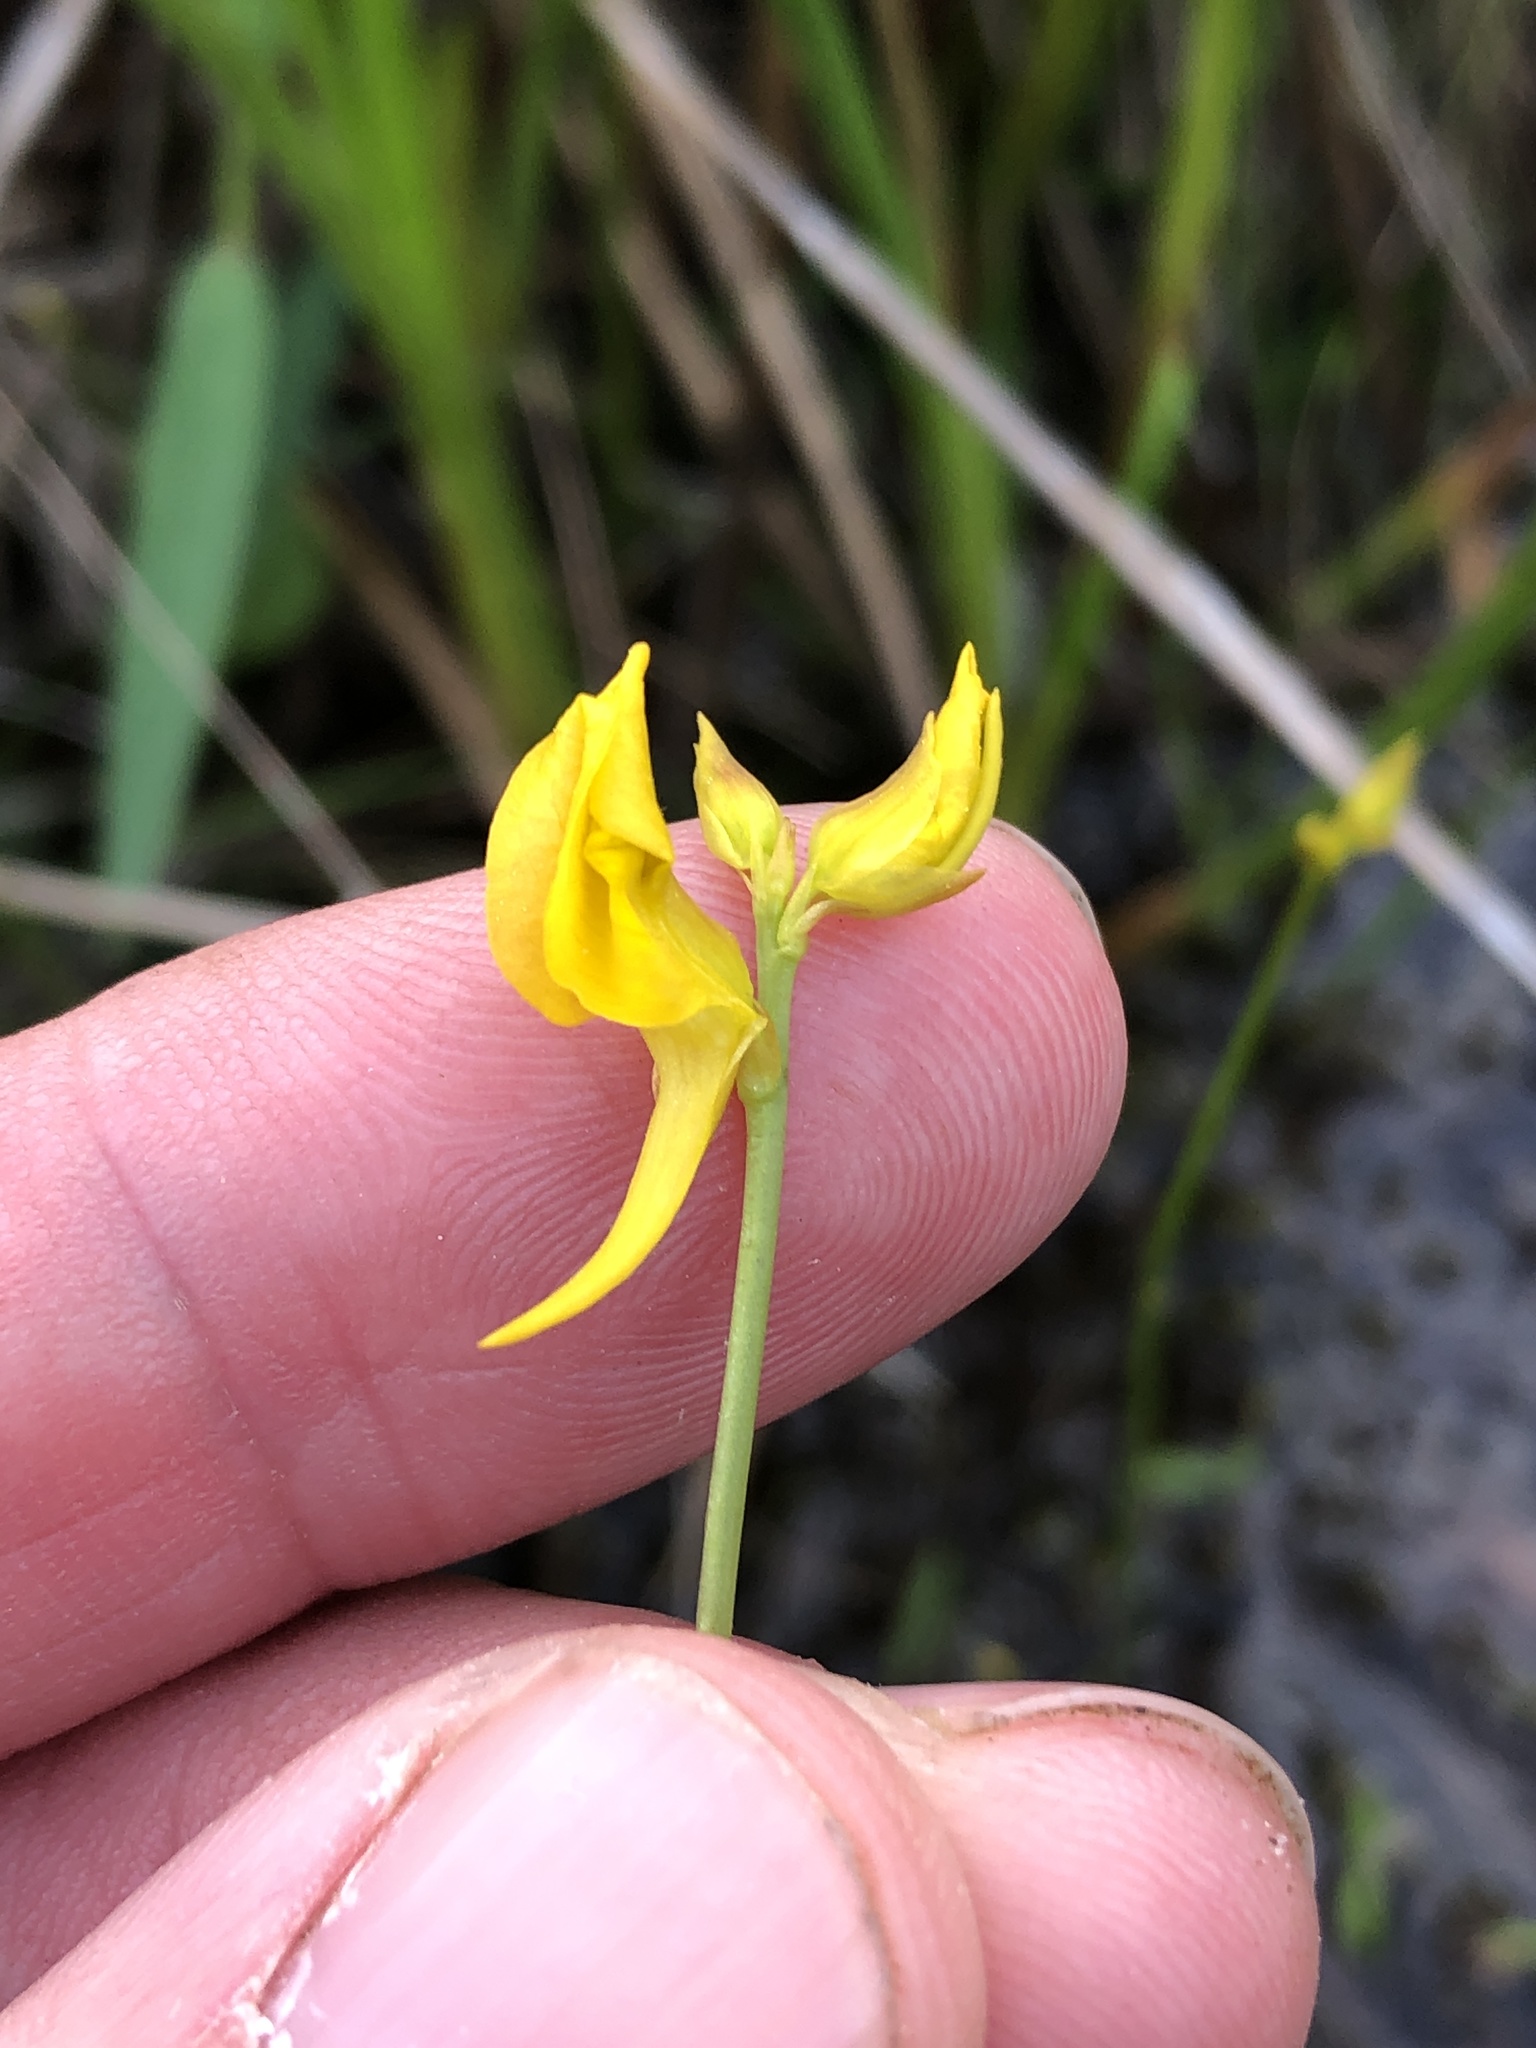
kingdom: Plantae
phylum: Tracheophyta
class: Magnoliopsida
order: Lamiales
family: Lentibulariaceae
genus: Utricularia
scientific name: Utricularia cornuta
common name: Horned bladderwort
